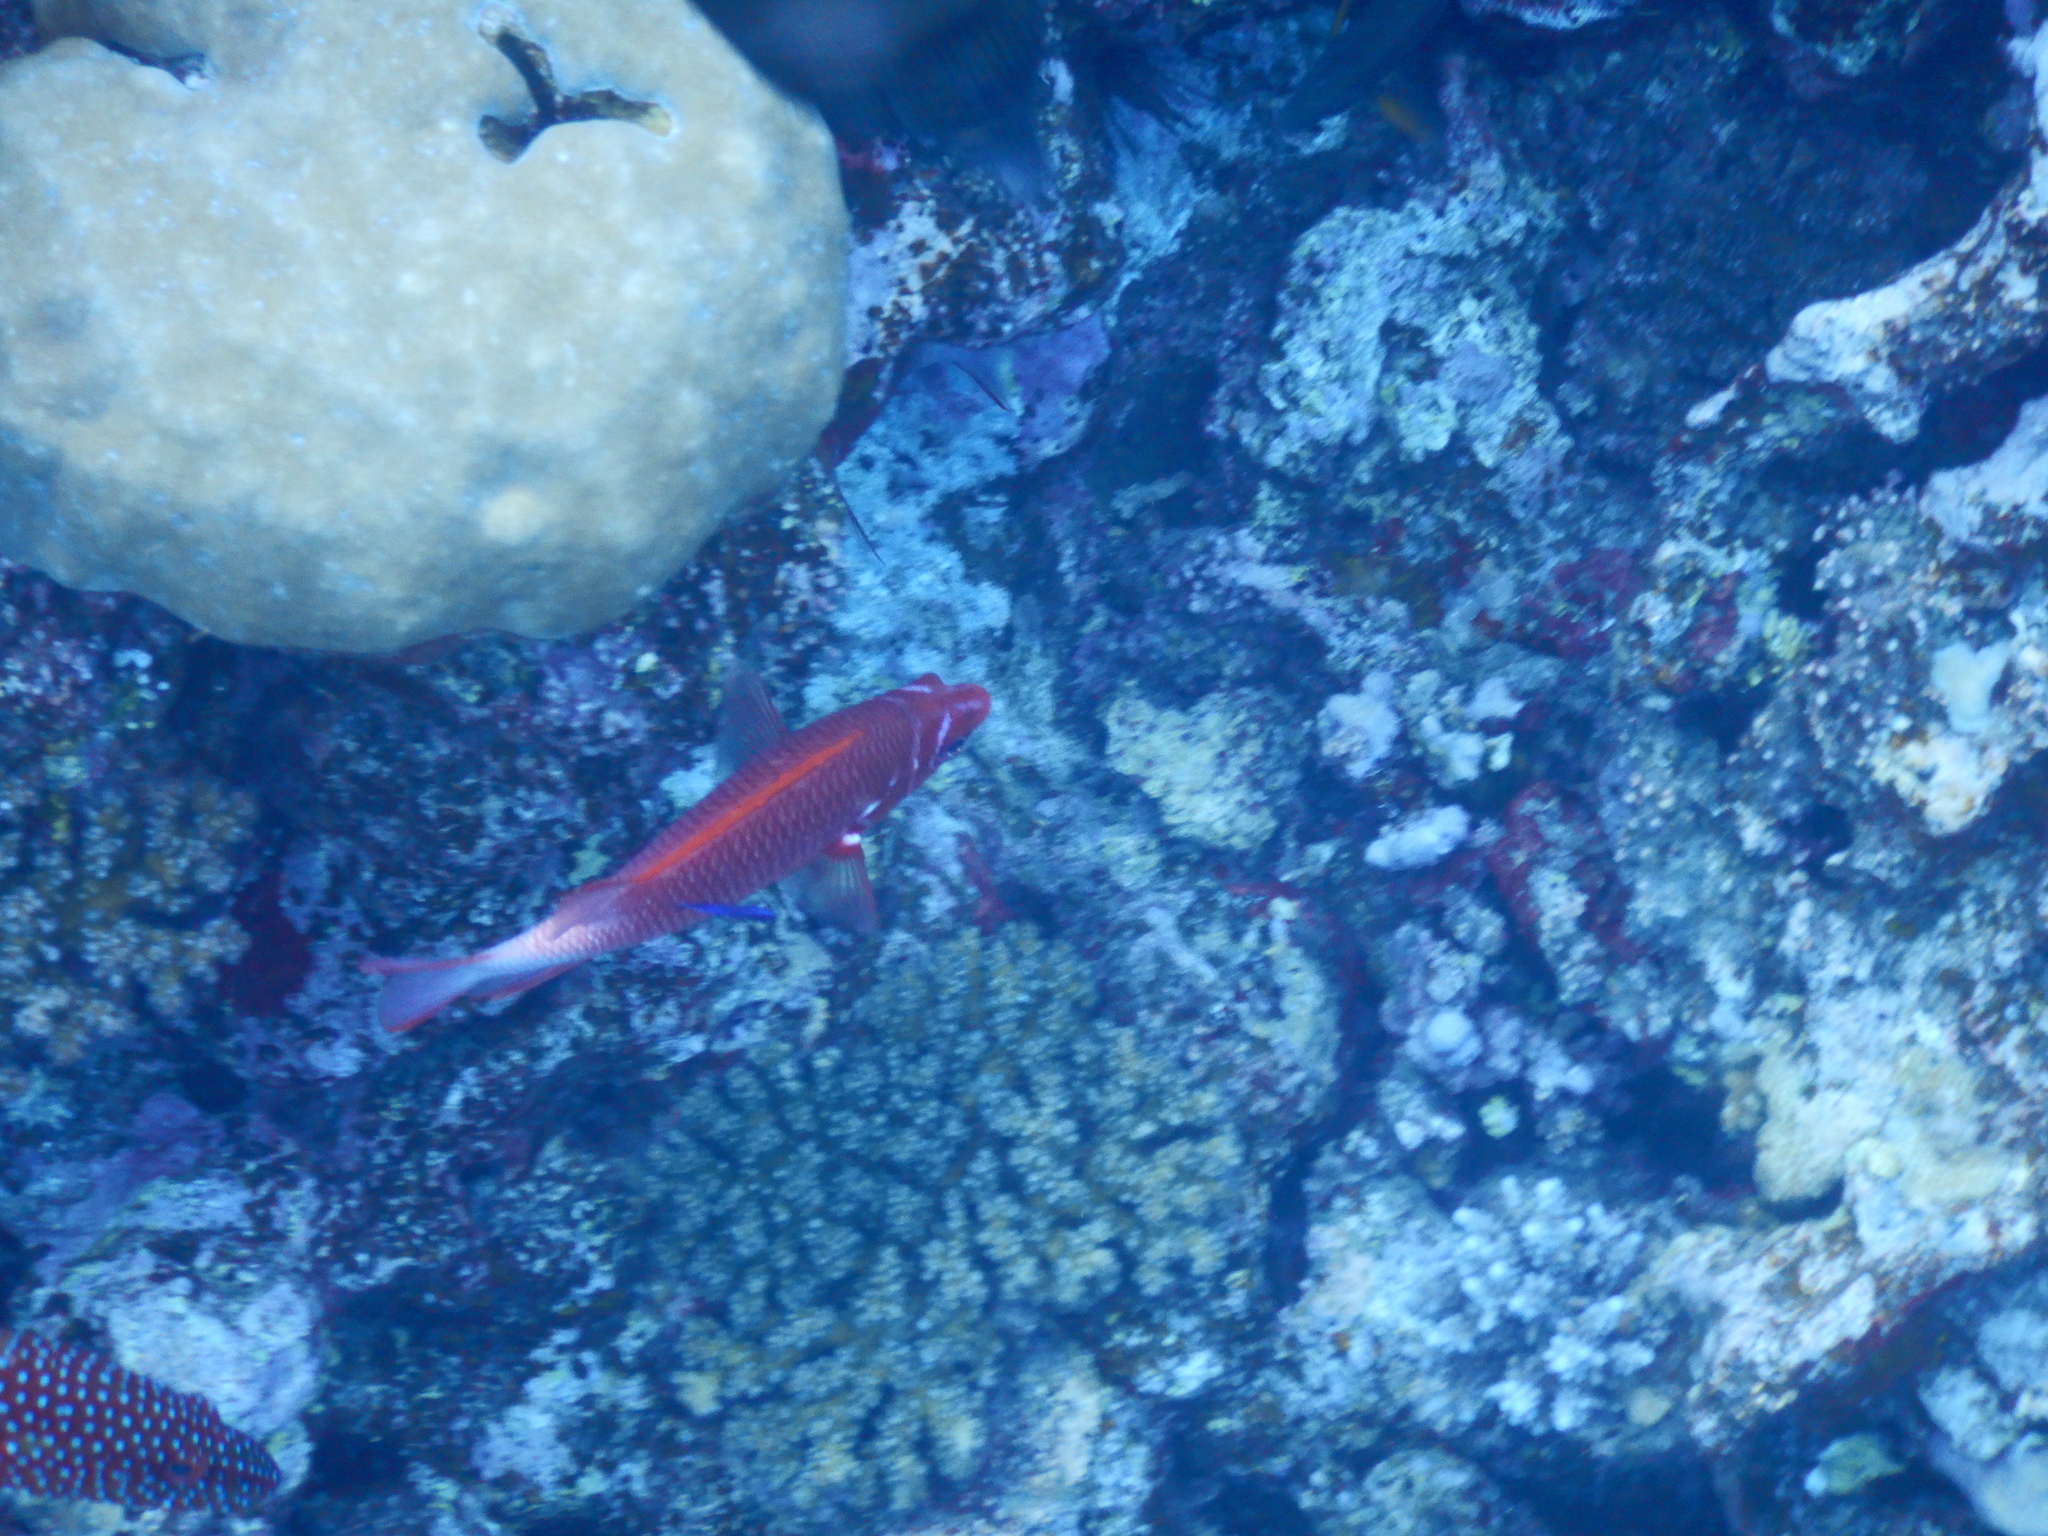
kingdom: Animalia
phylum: Chordata
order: Beryciformes
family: Holocentridae
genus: Sargocentron
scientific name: Sargocentron caudimaculatum
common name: Fanfin soldier
